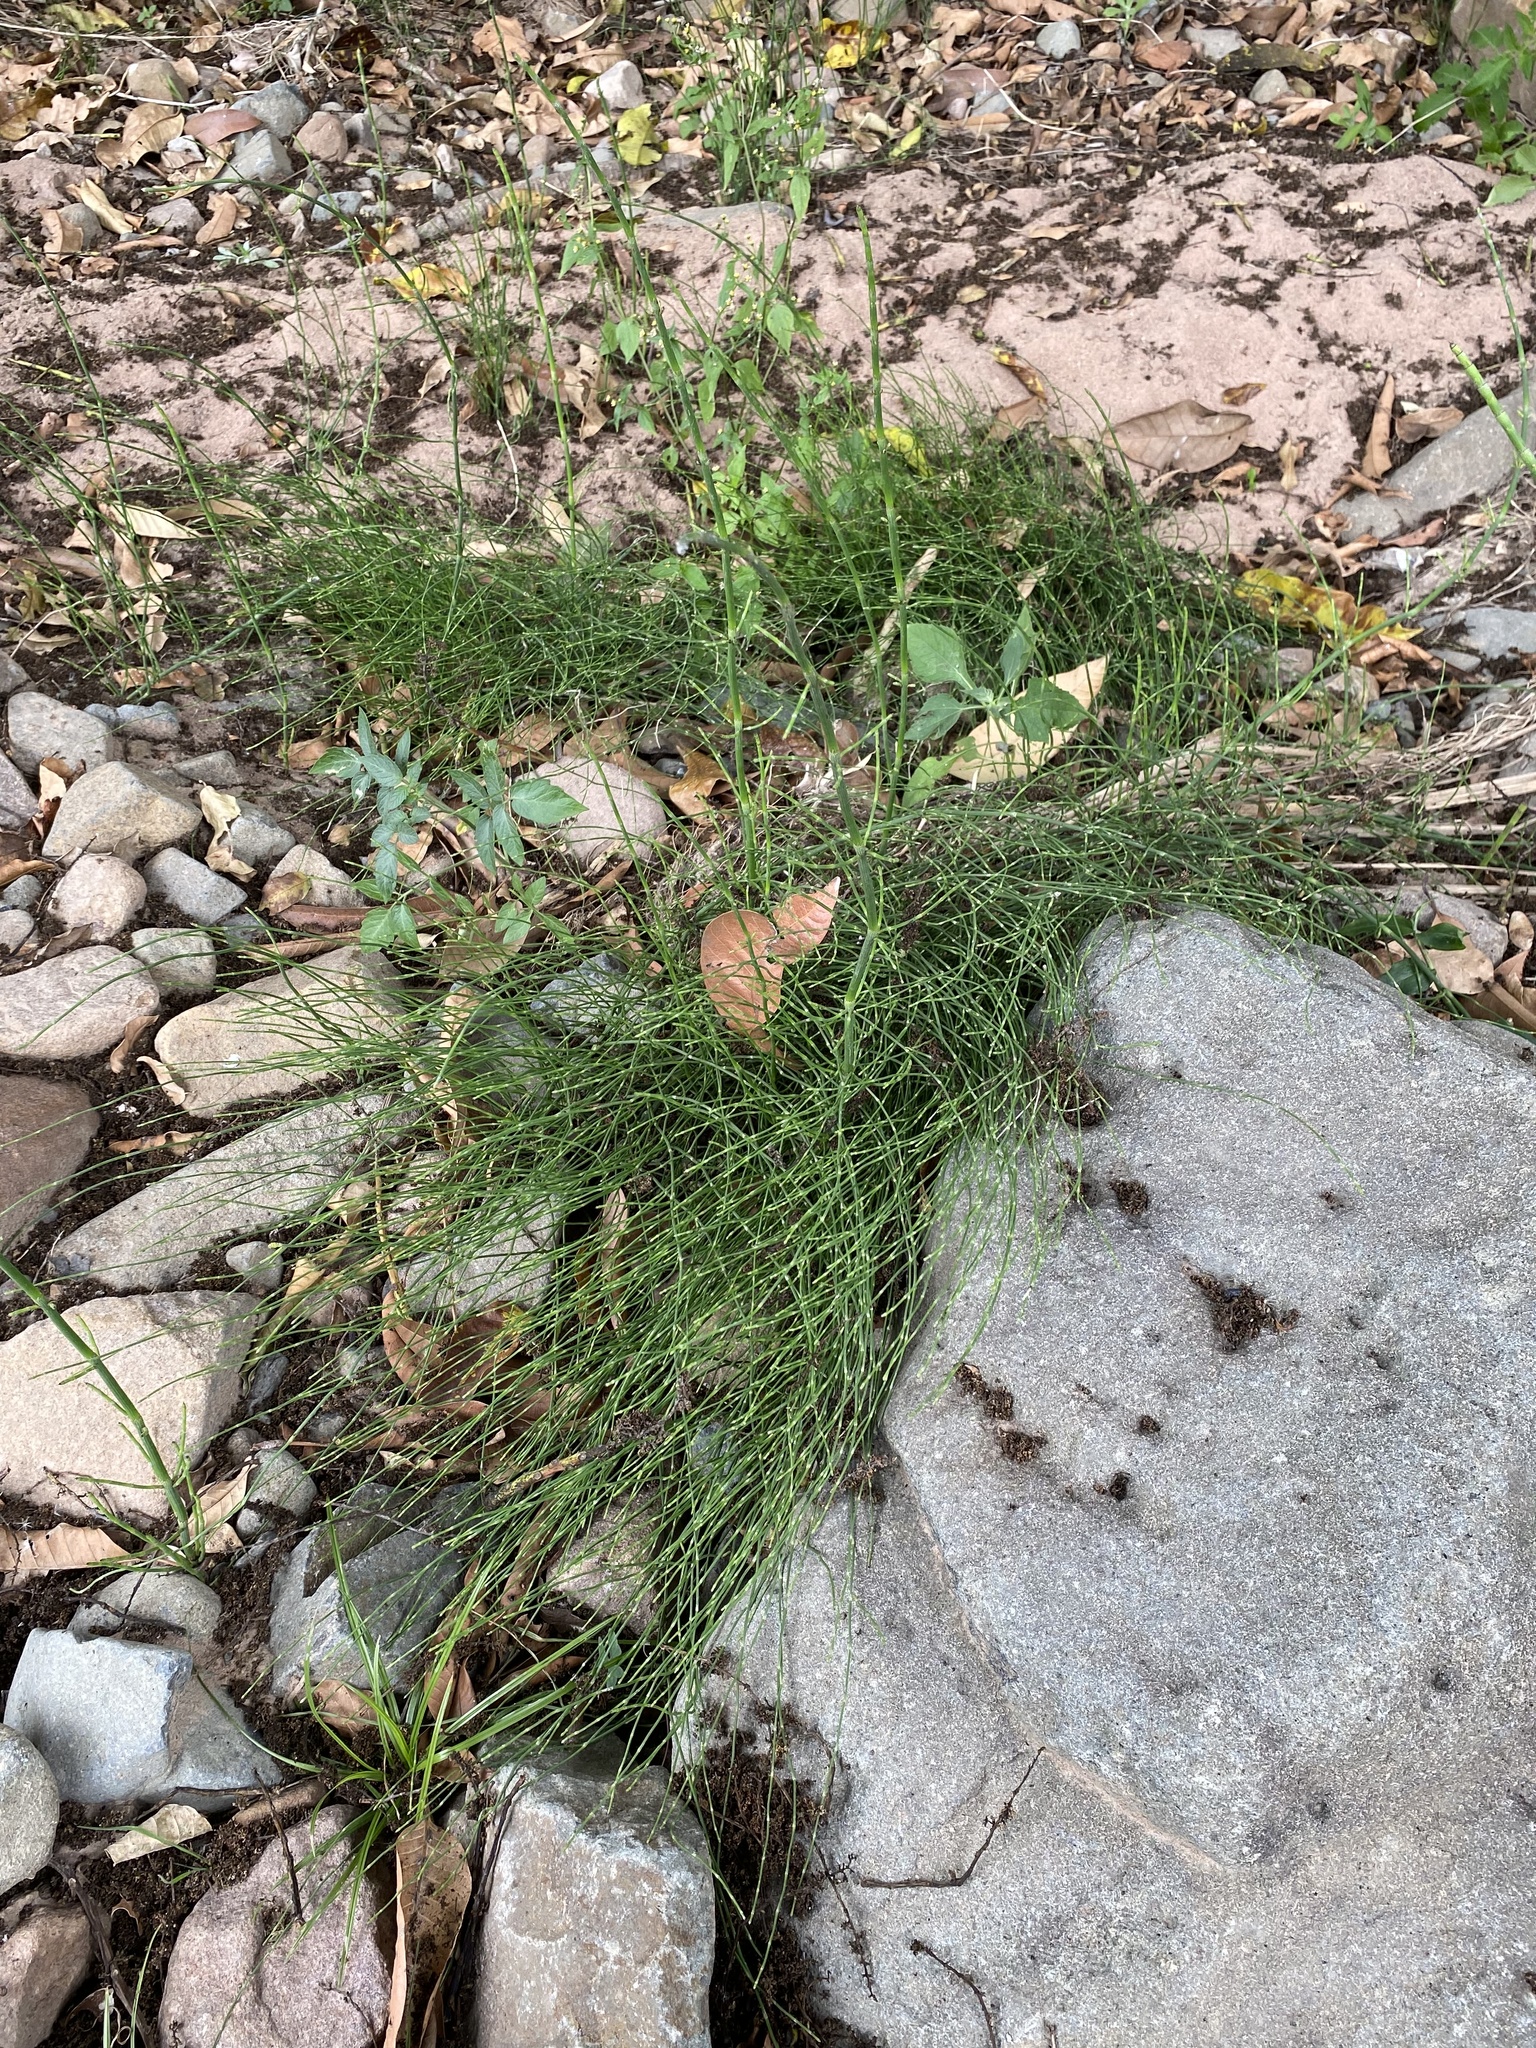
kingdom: Plantae
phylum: Tracheophyta
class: Polypodiopsida
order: Equisetales
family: Equisetaceae
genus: Equisetum
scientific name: Equisetum ramosissimum
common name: Branched horsetail
